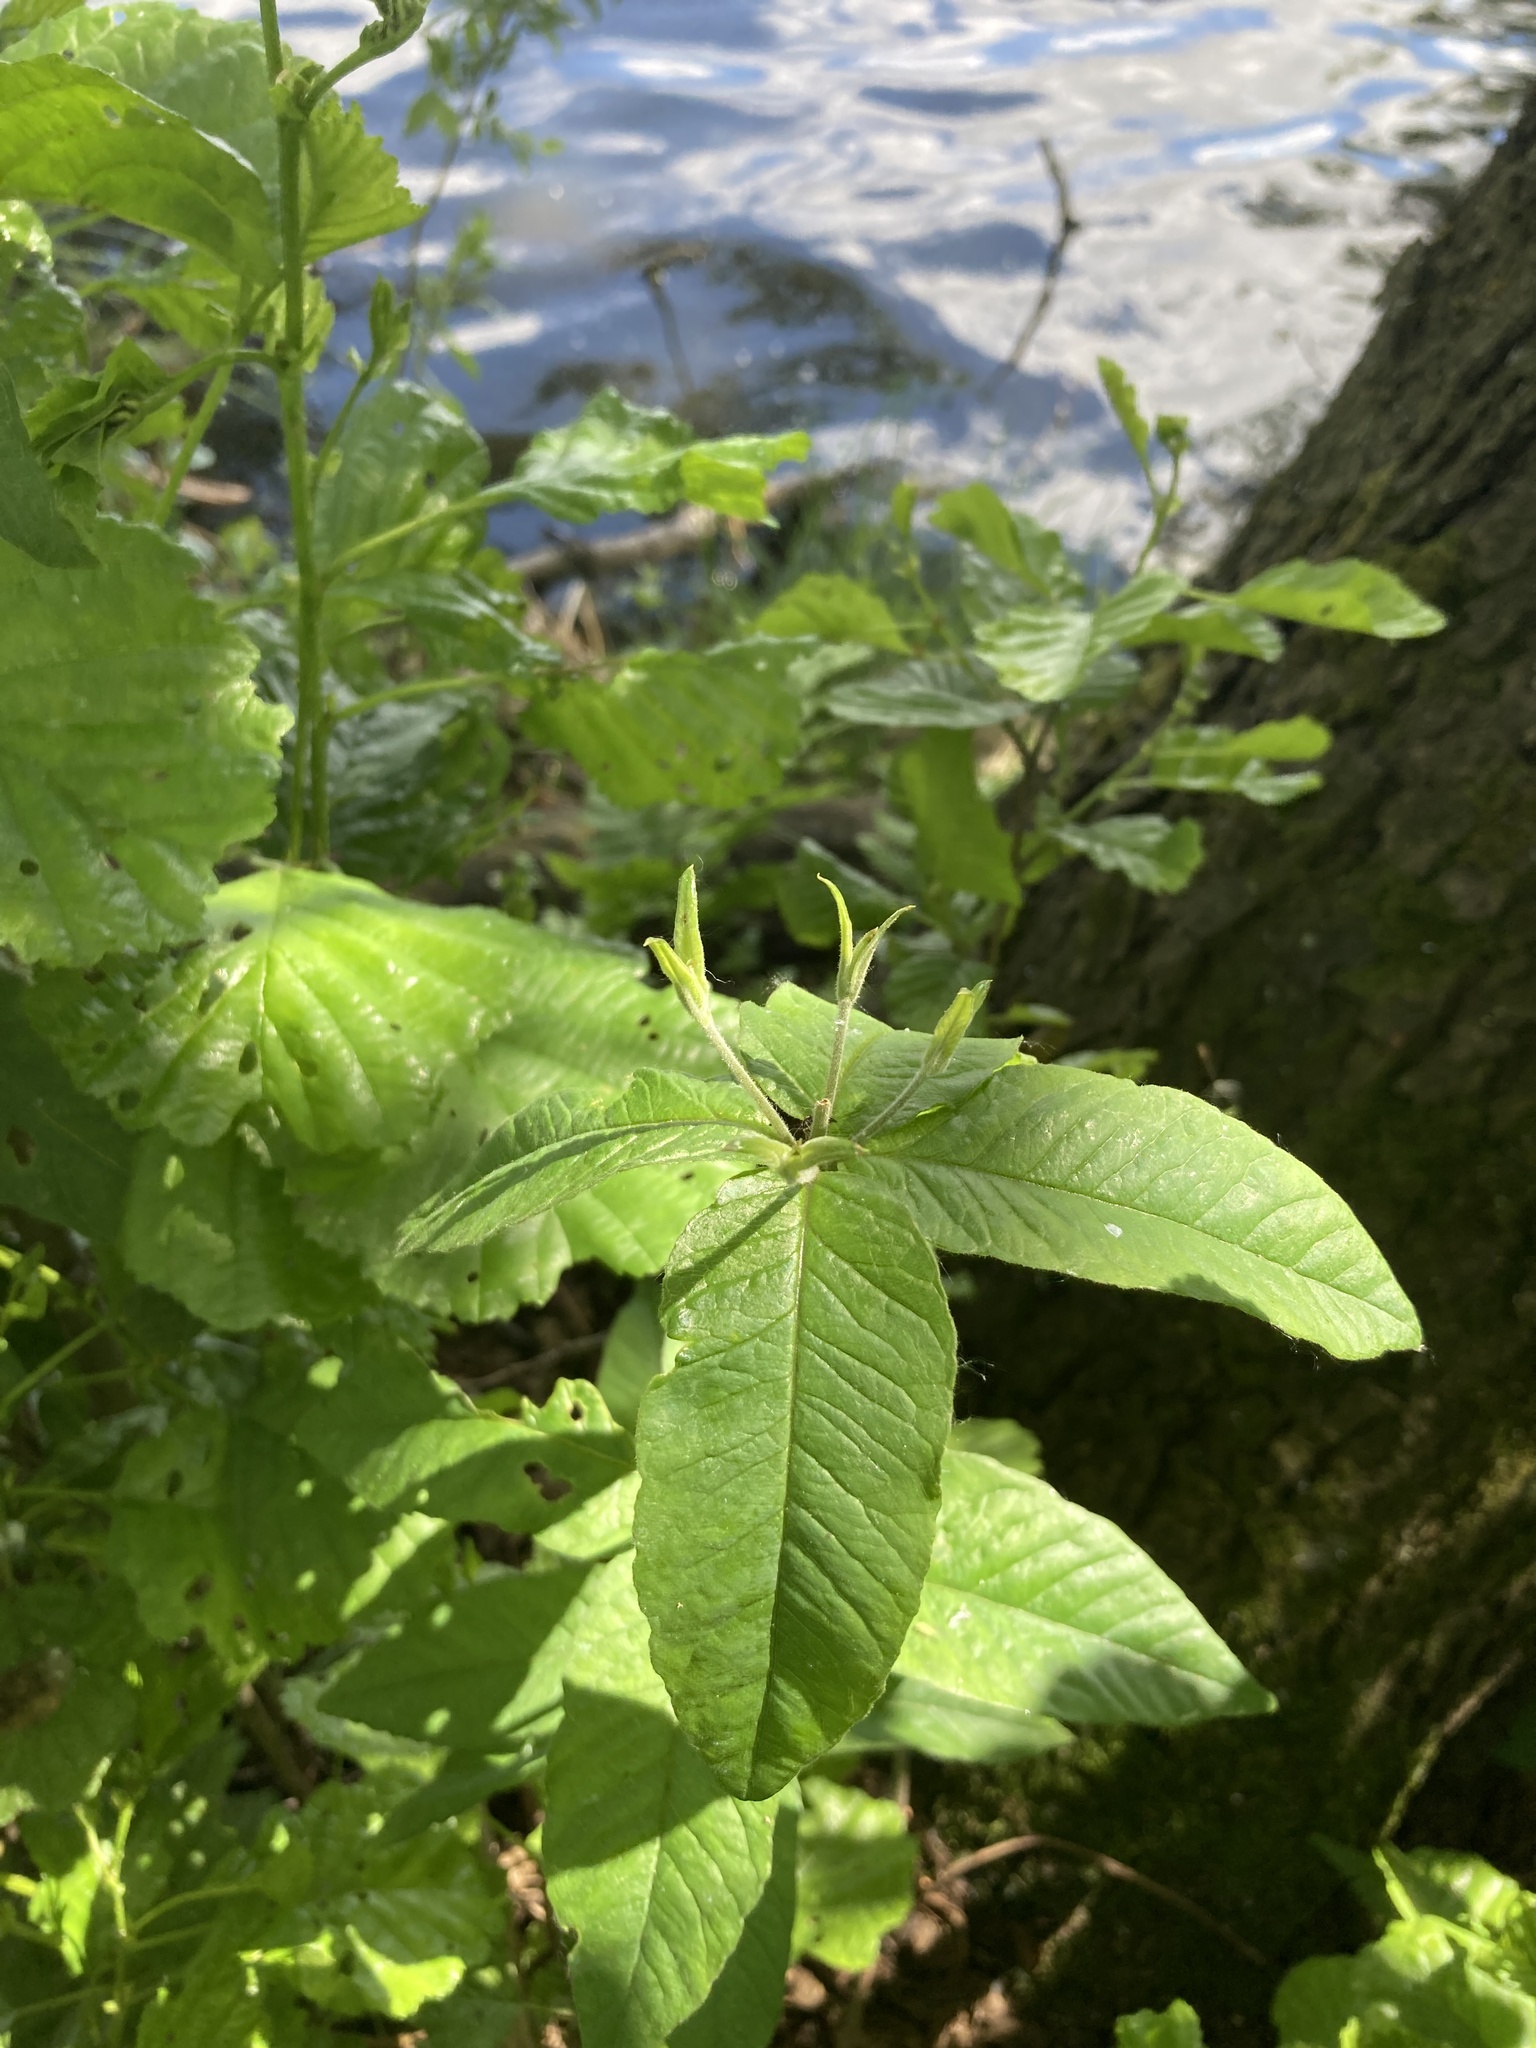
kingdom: Plantae
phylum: Tracheophyta
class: Magnoliopsida
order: Ericales
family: Primulaceae
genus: Lysimachia
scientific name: Lysimachia vulgaris
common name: Yellow loosestrife
